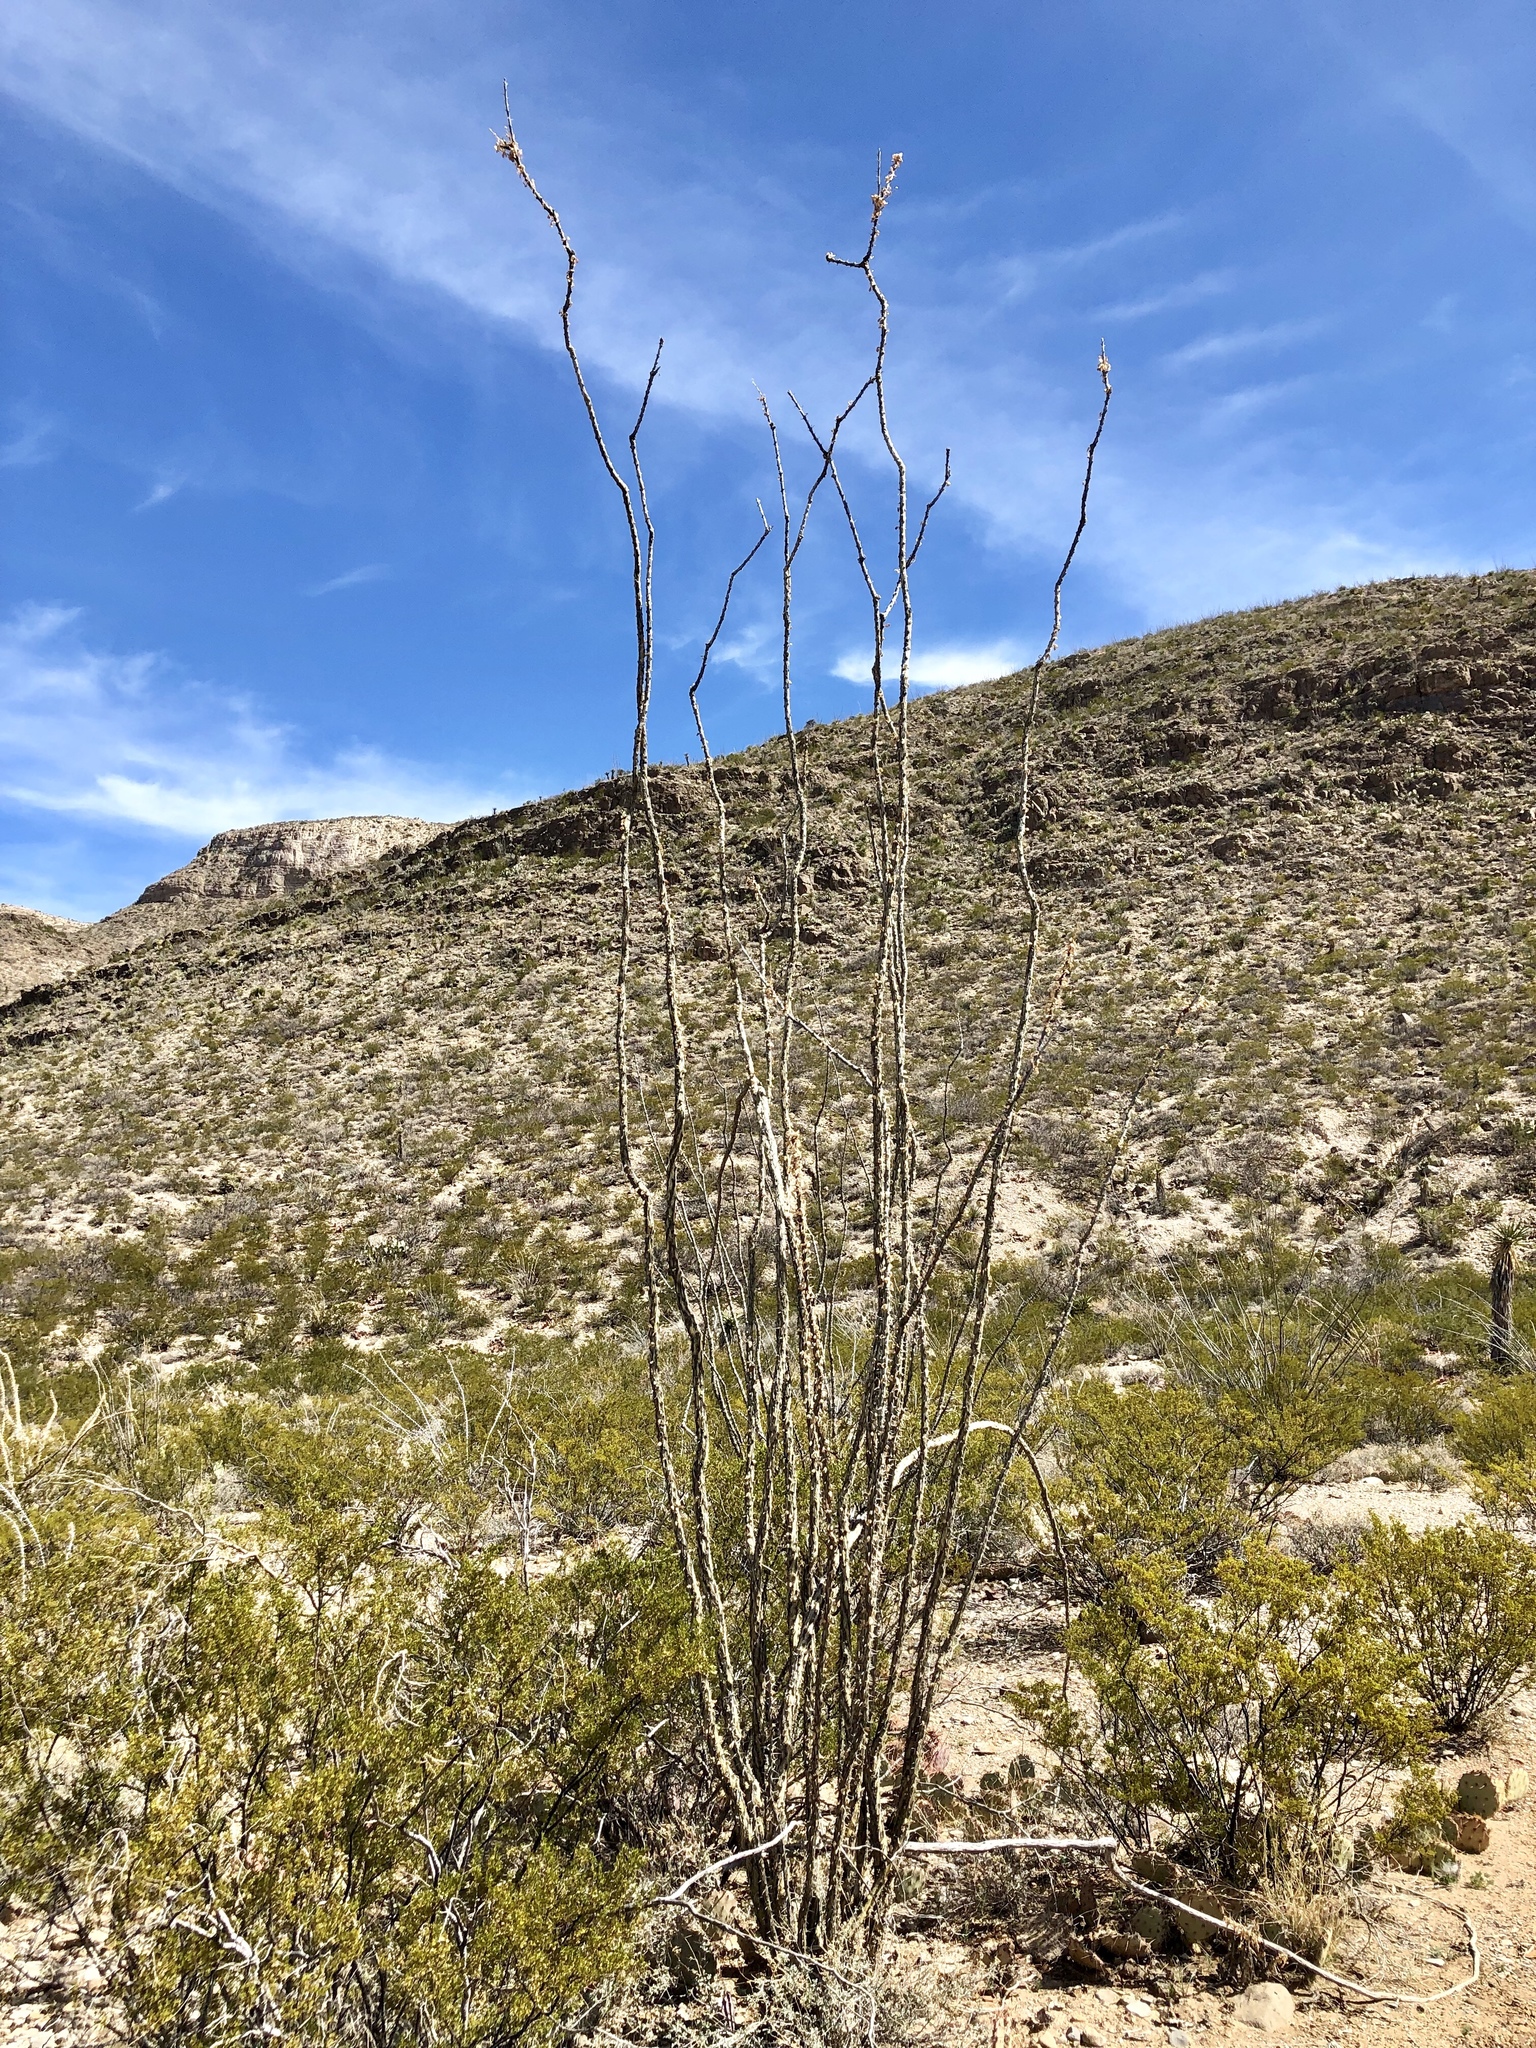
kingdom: Plantae
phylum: Tracheophyta
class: Magnoliopsida
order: Ericales
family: Fouquieriaceae
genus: Fouquieria
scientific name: Fouquieria splendens
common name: Vine-cactus
